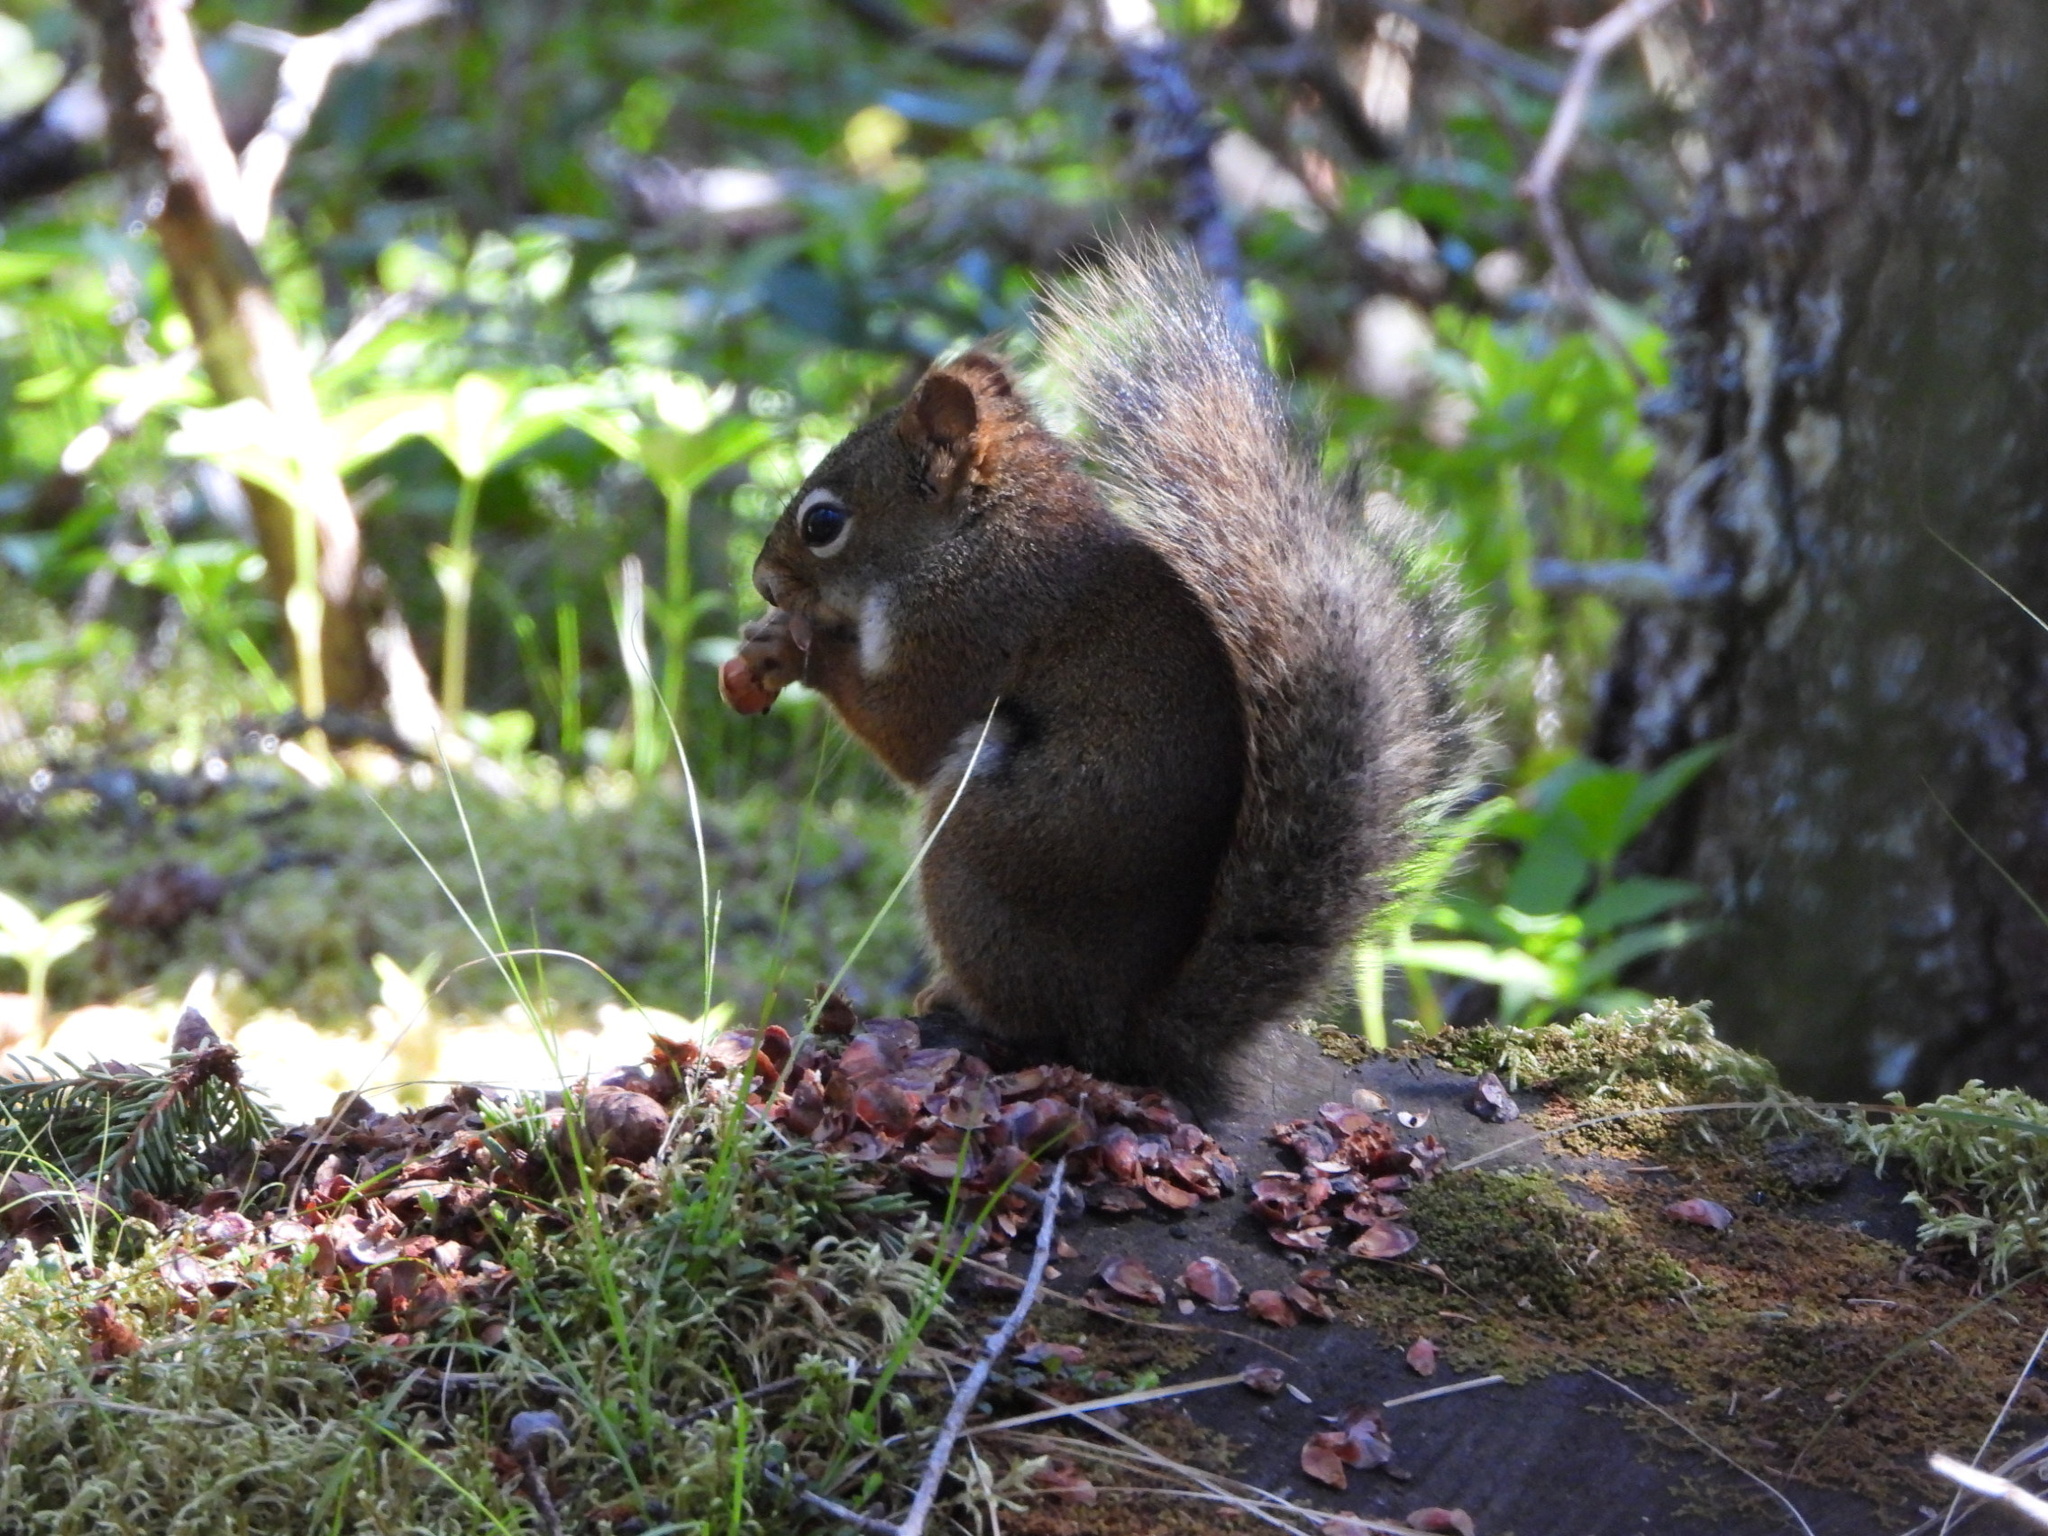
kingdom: Animalia
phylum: Chordata
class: Mammalia
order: Rodentia
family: Sciuridae
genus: Tamiasciurus
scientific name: Tamiasciurus hudsonicus
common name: Red squirrel
